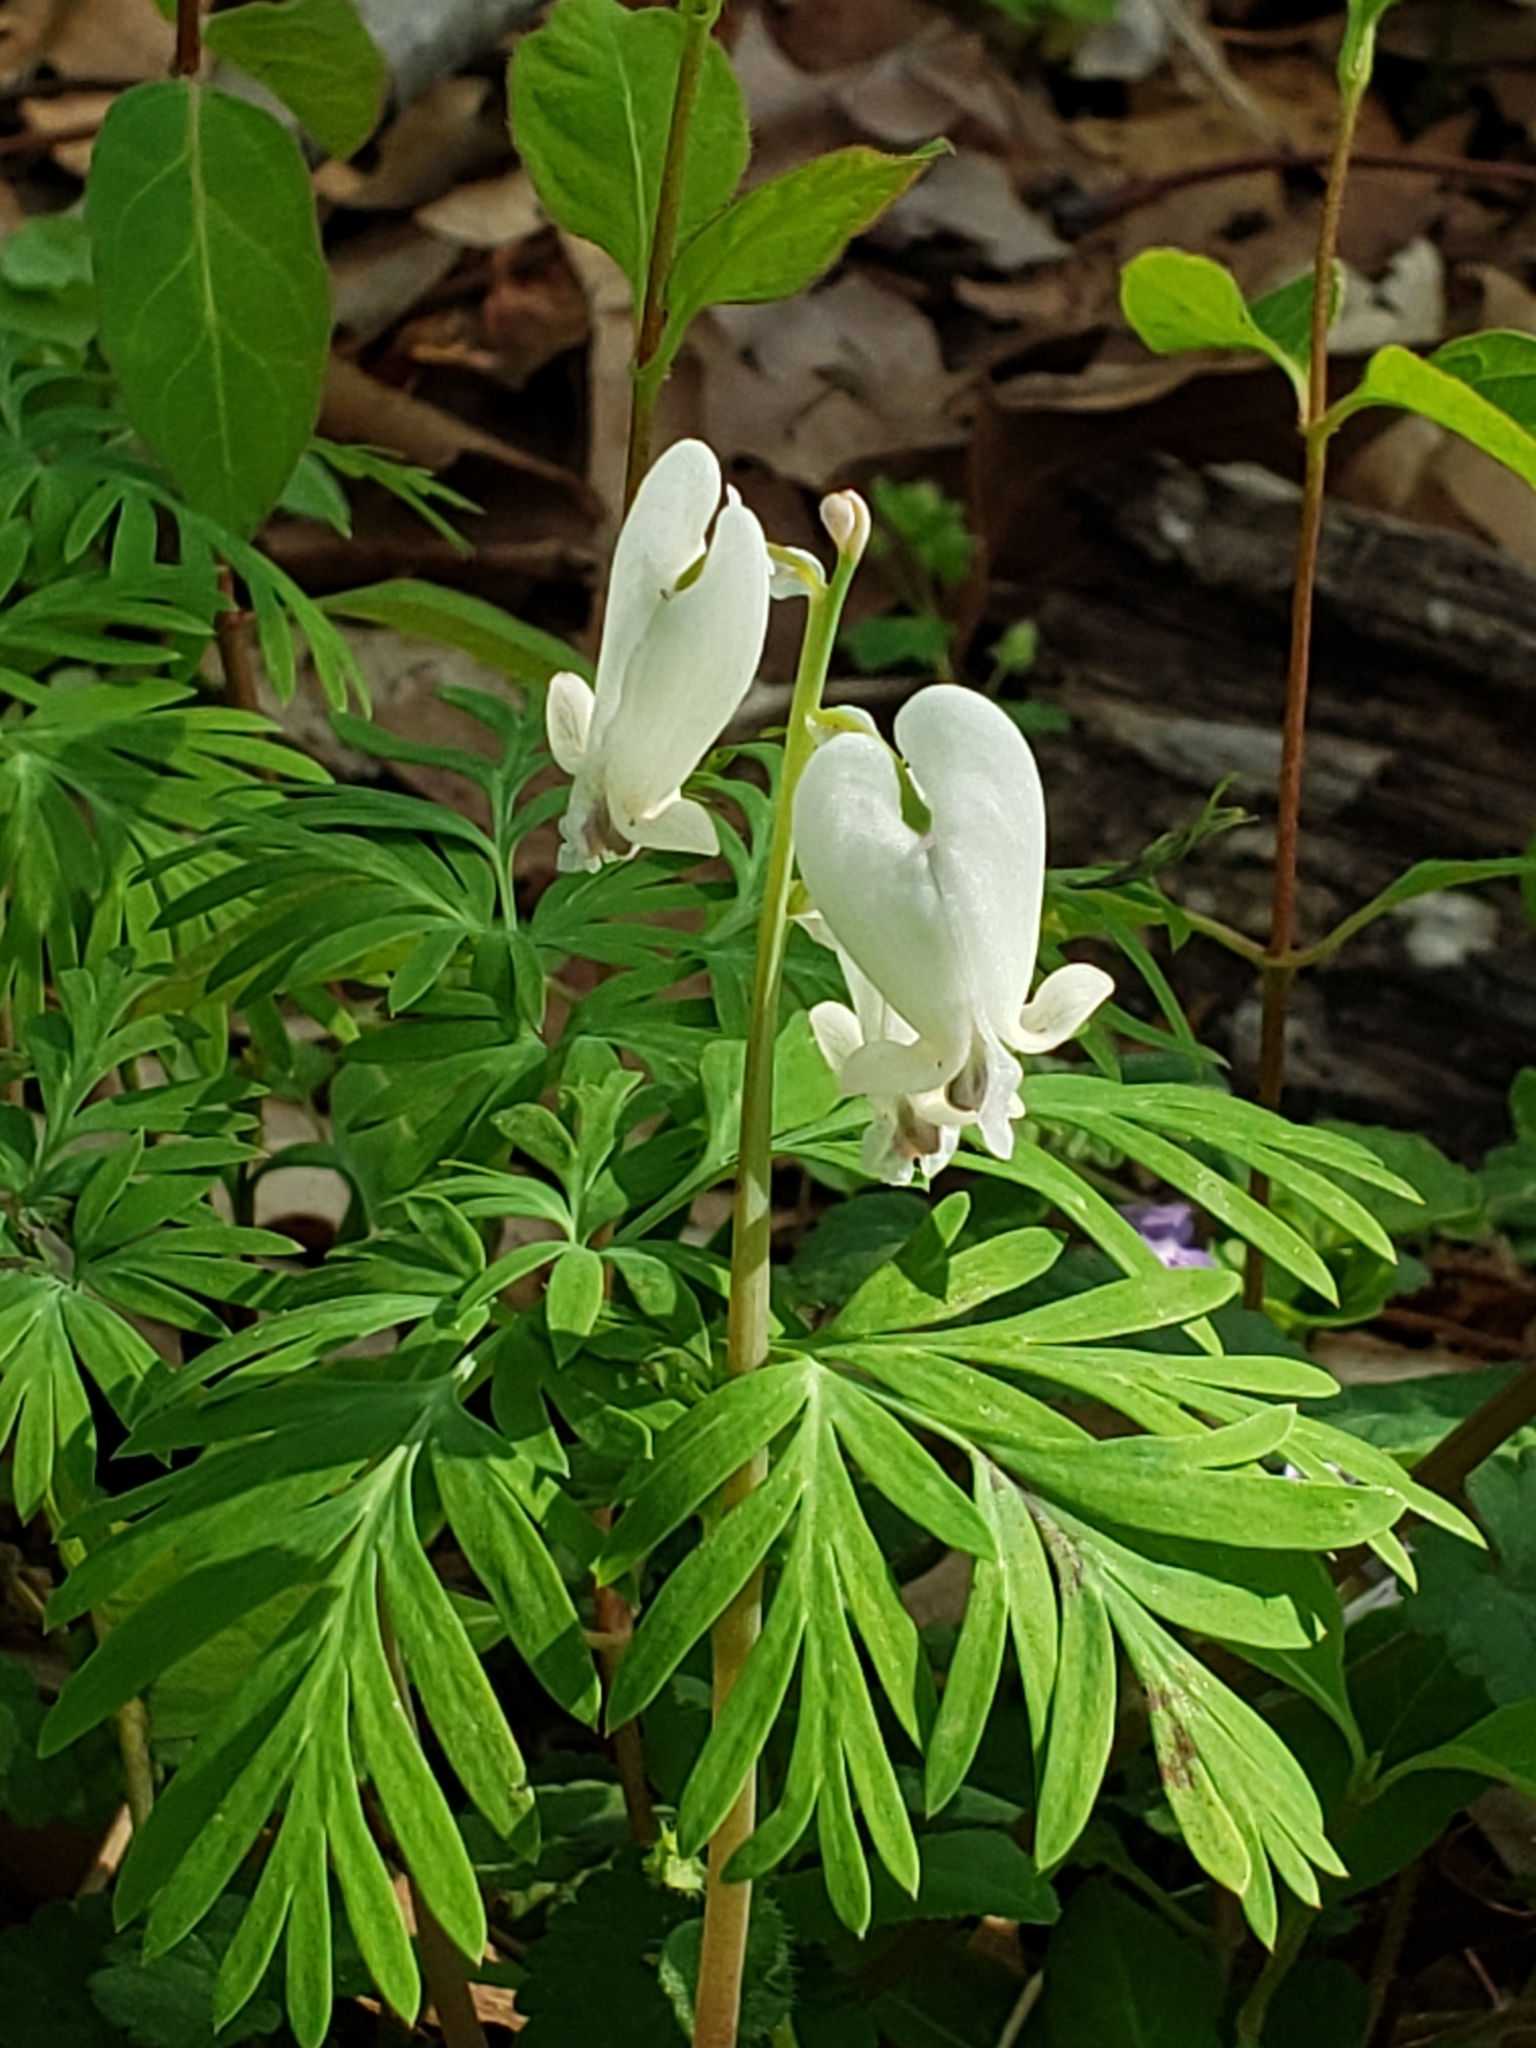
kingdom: Plantae
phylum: Tracheophyta
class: Magnoliopsida
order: Ranunculales
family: Papaveraceae
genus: Dicentra
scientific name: Dicentra canadensis
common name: Squirrel-corn
